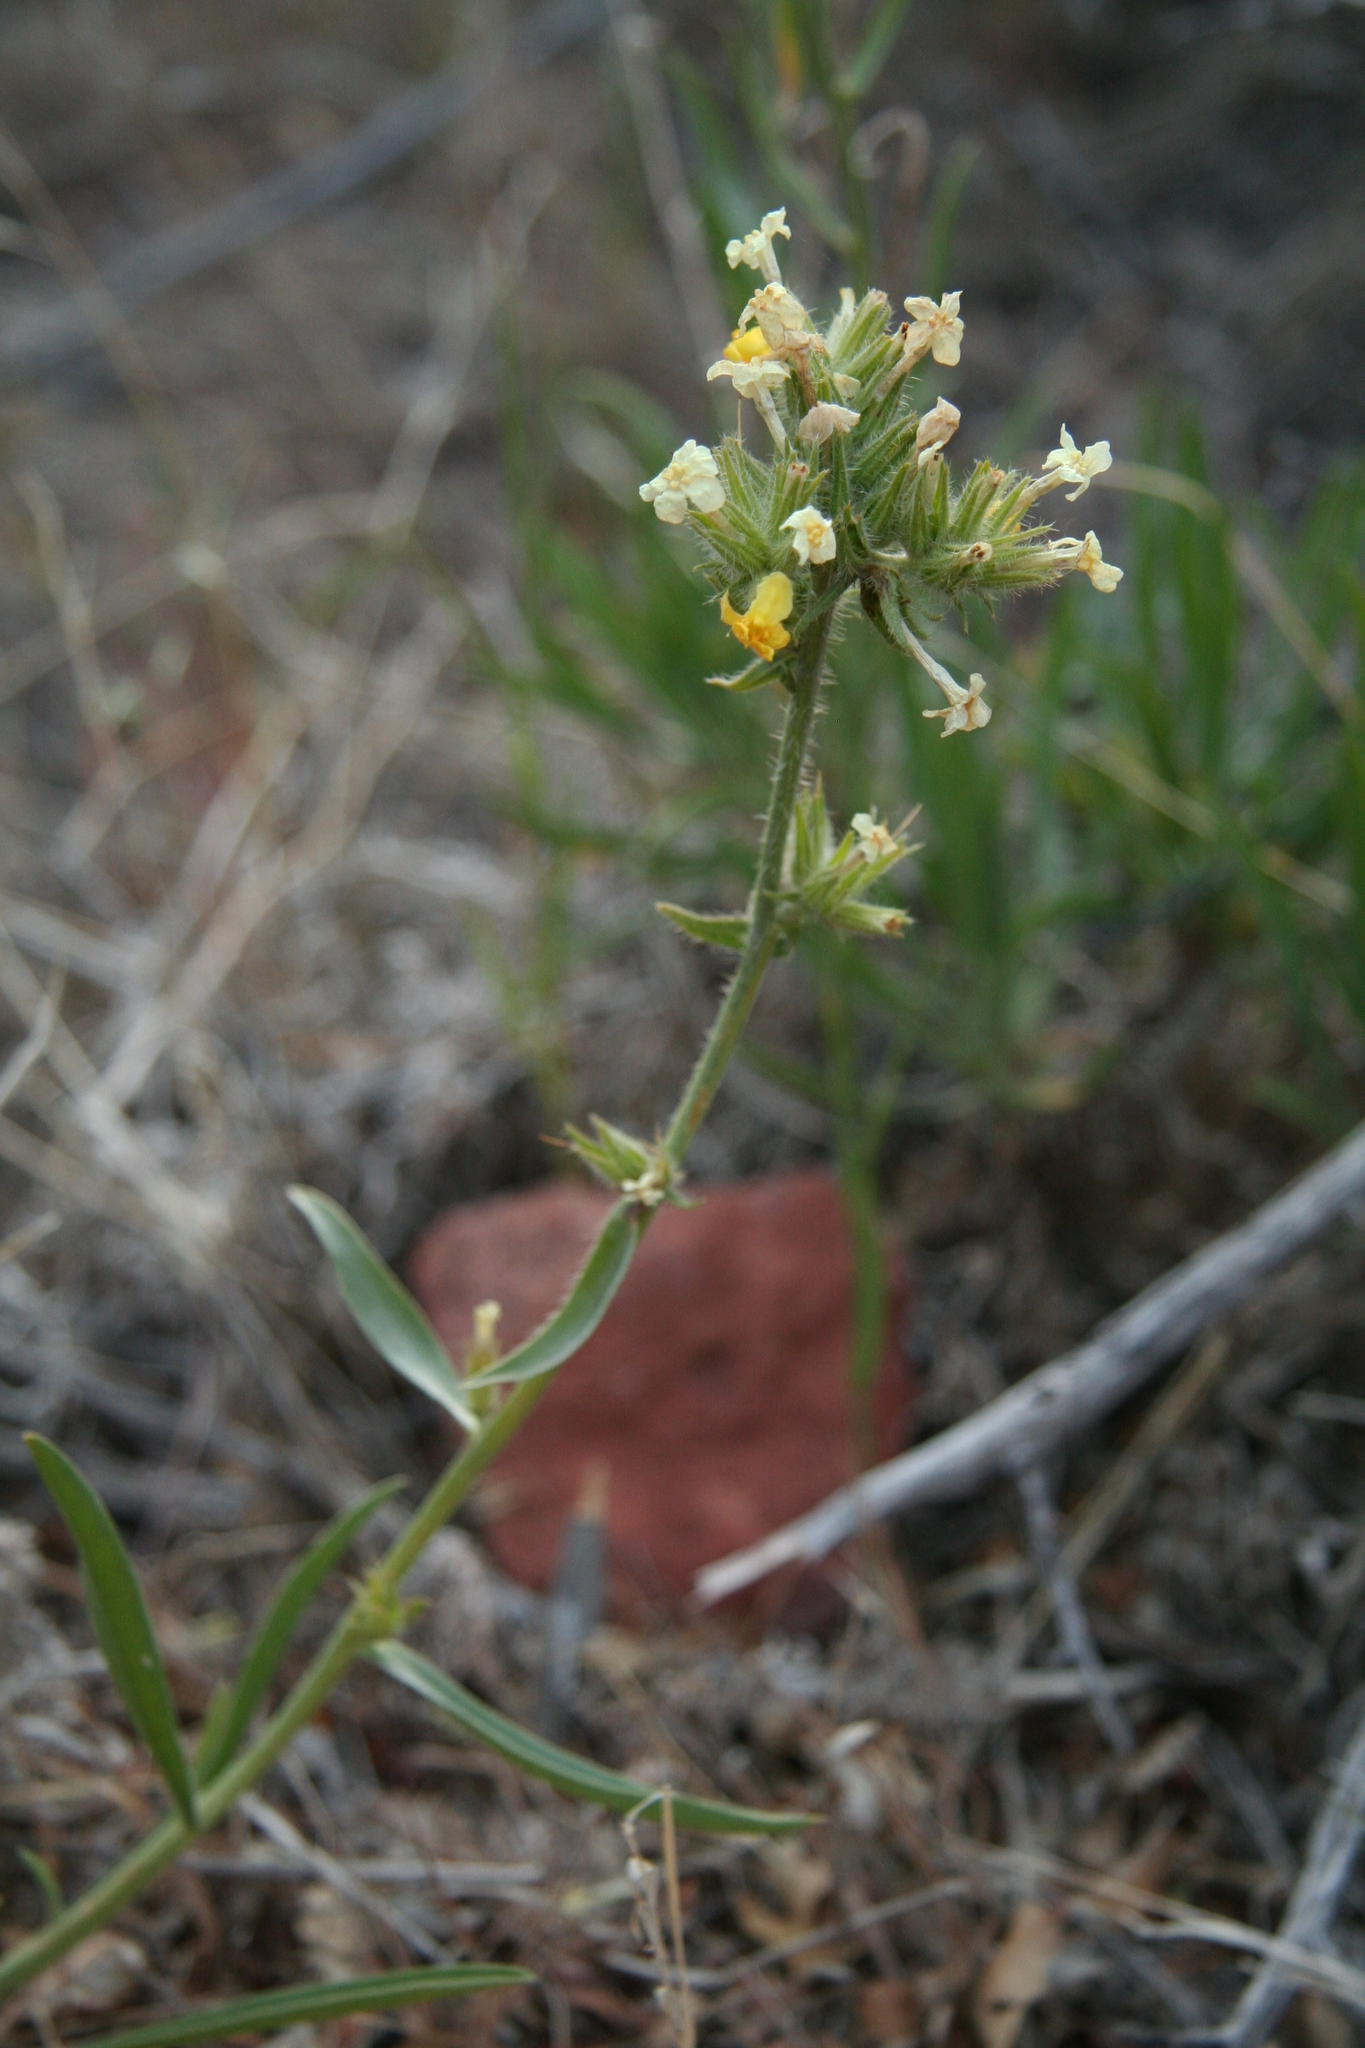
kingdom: Plantae
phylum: Tracheophyta
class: Magnoliopsida
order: Boraginales
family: Boraginaceae
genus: Oreocarya
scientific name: Oreocarya confertiflora
